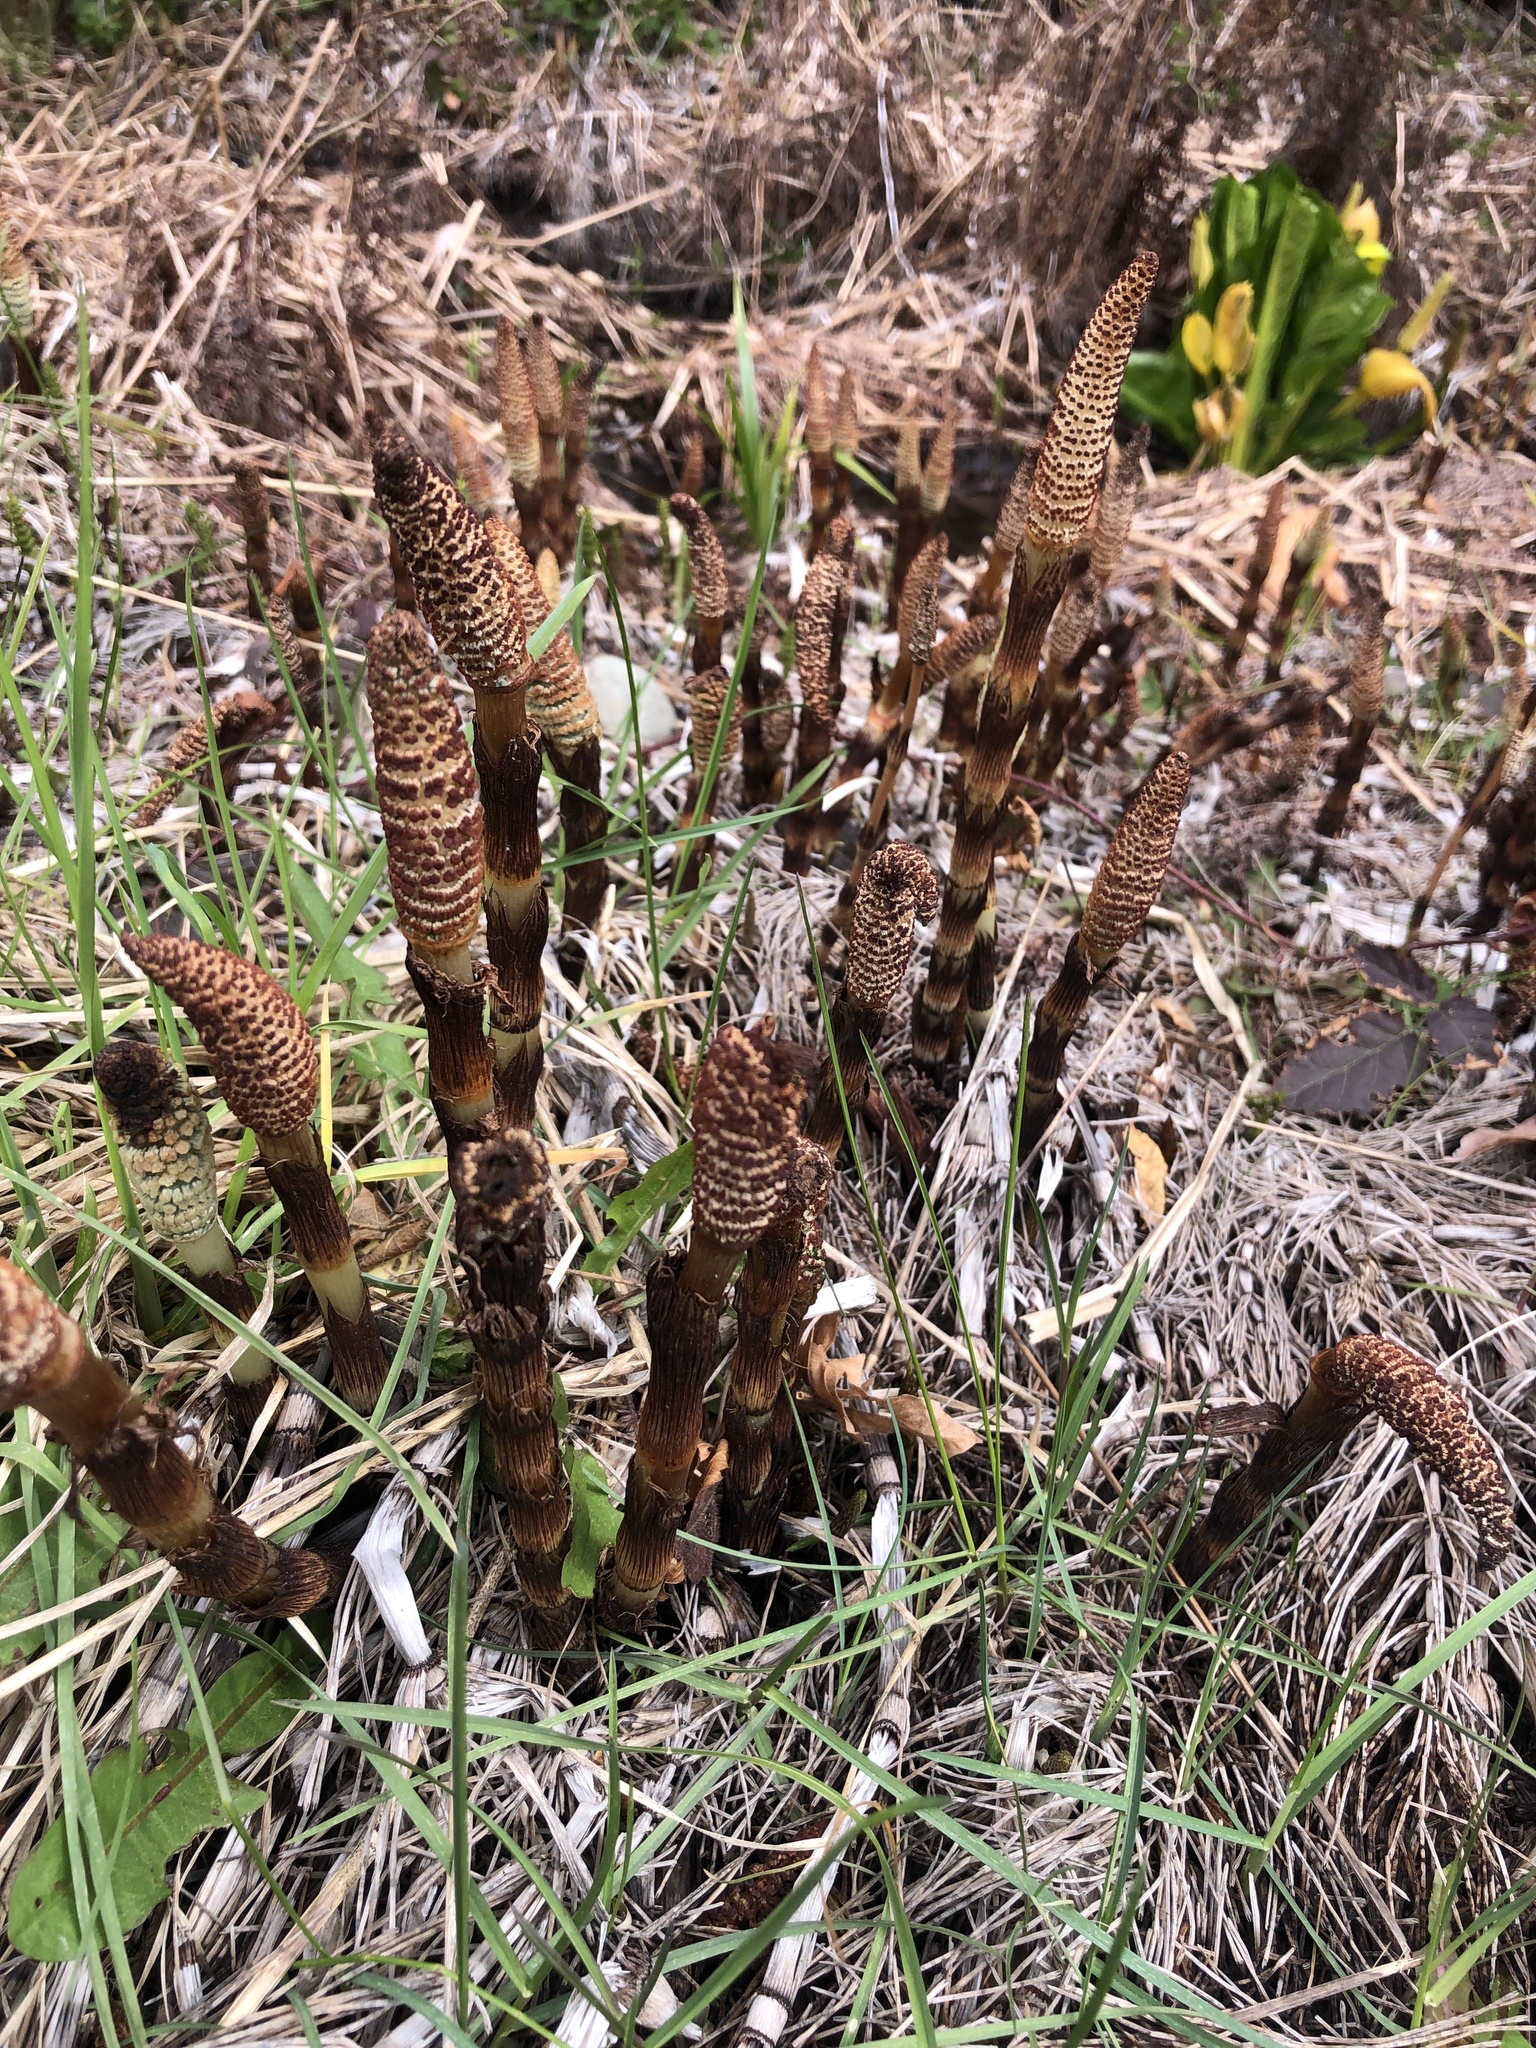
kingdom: Plantae
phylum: Tracheophyta
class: Polypodiopsida
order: Equisetales
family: Equisetaceae
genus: Equisetum
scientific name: Equisetum telmateia
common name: Great horsetail
